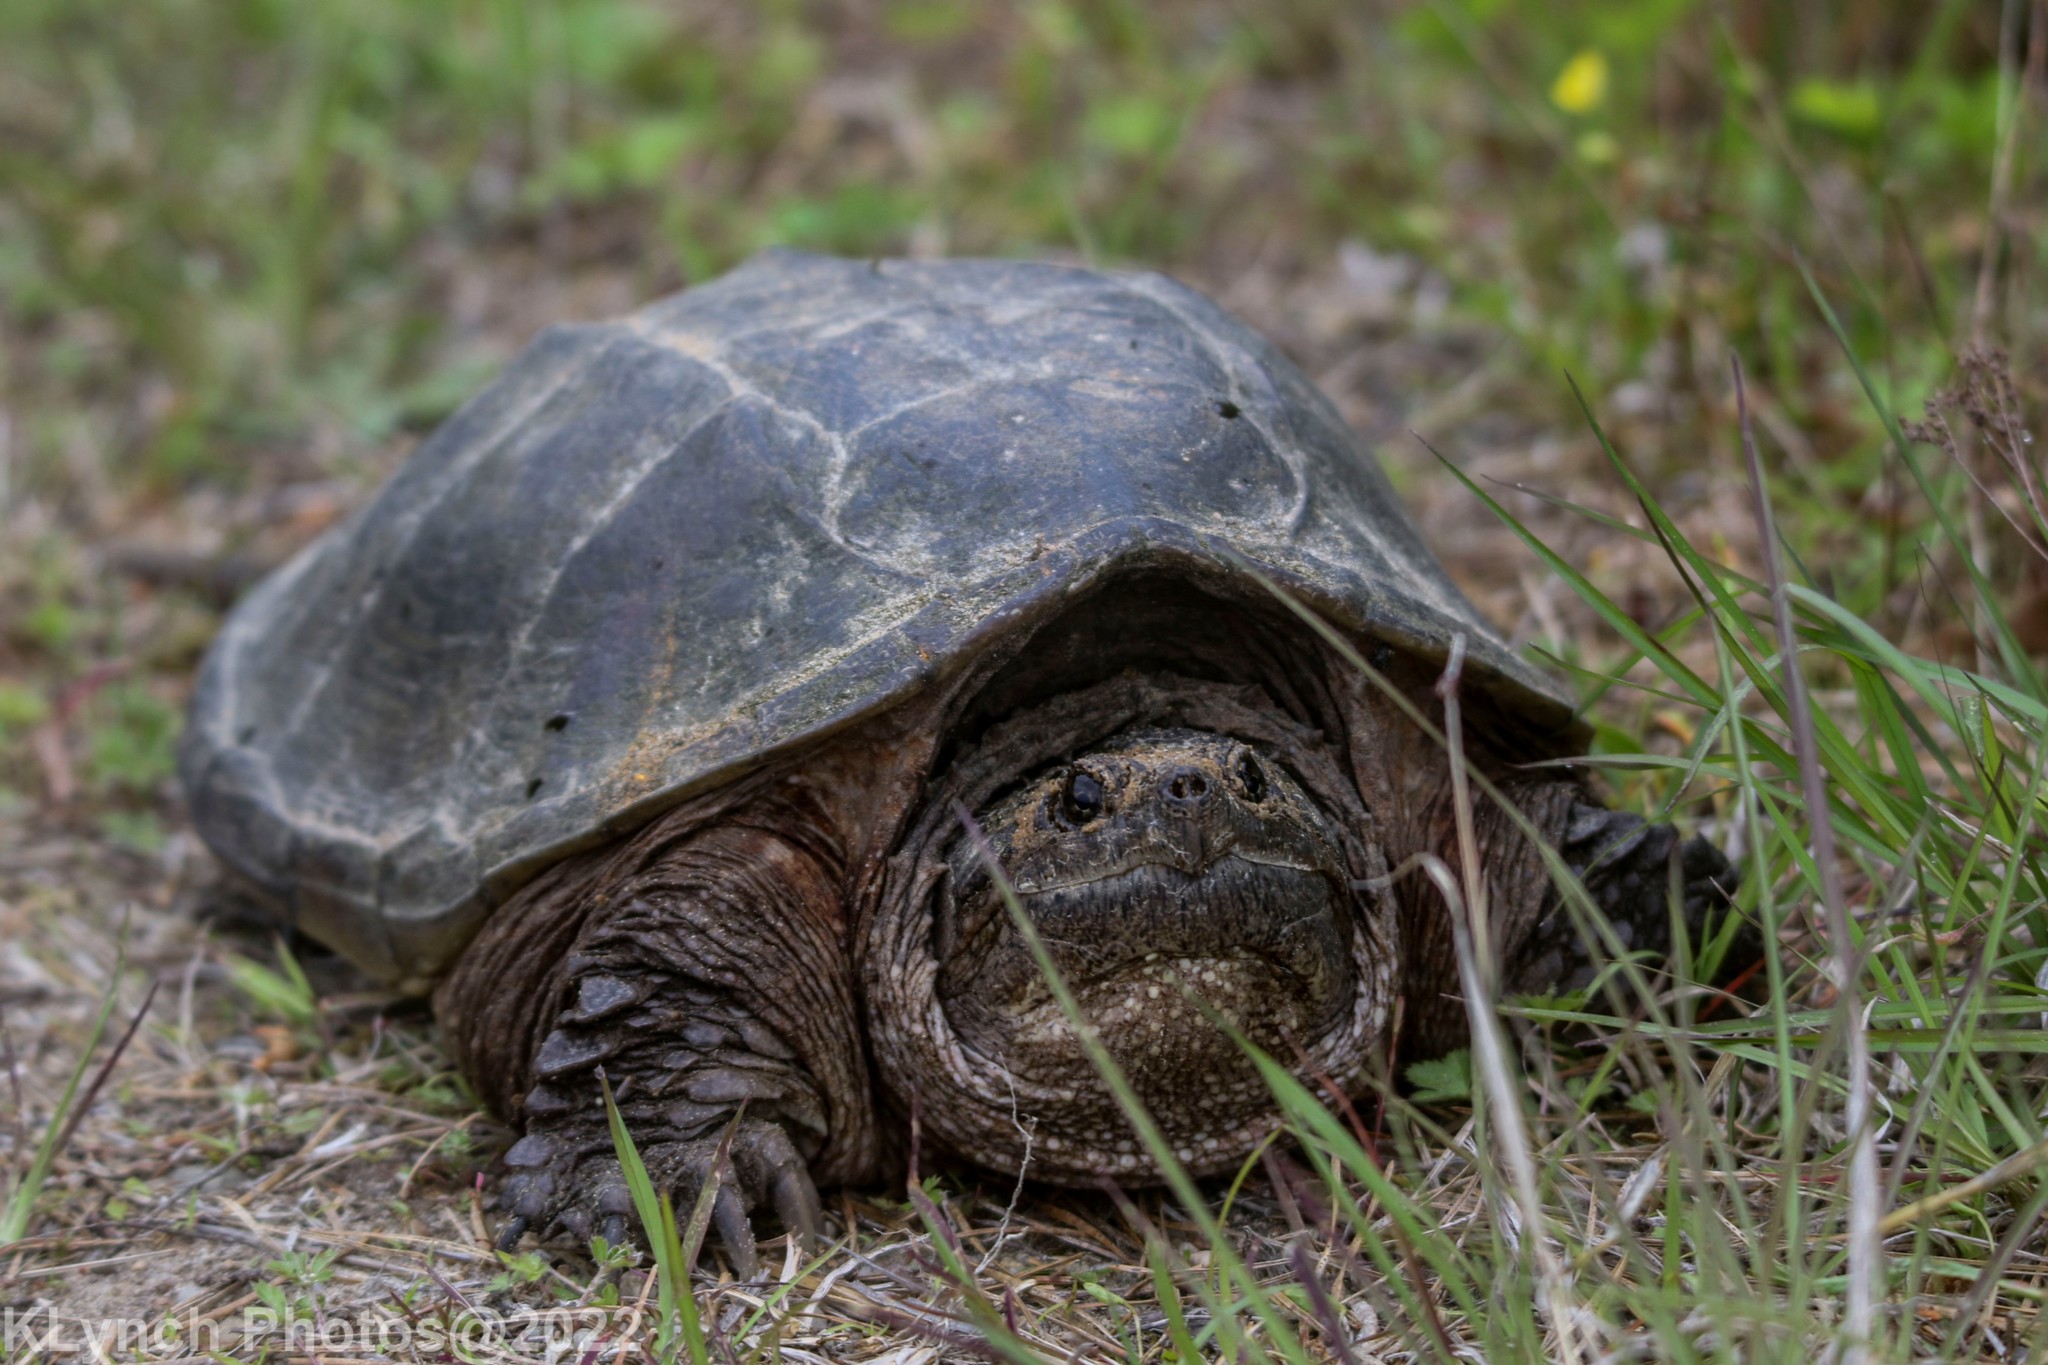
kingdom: Animalia
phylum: Chordata
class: Testudines
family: Chelydridae
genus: Chelydra
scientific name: Chelydra serpentina
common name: Common snapping turtle
